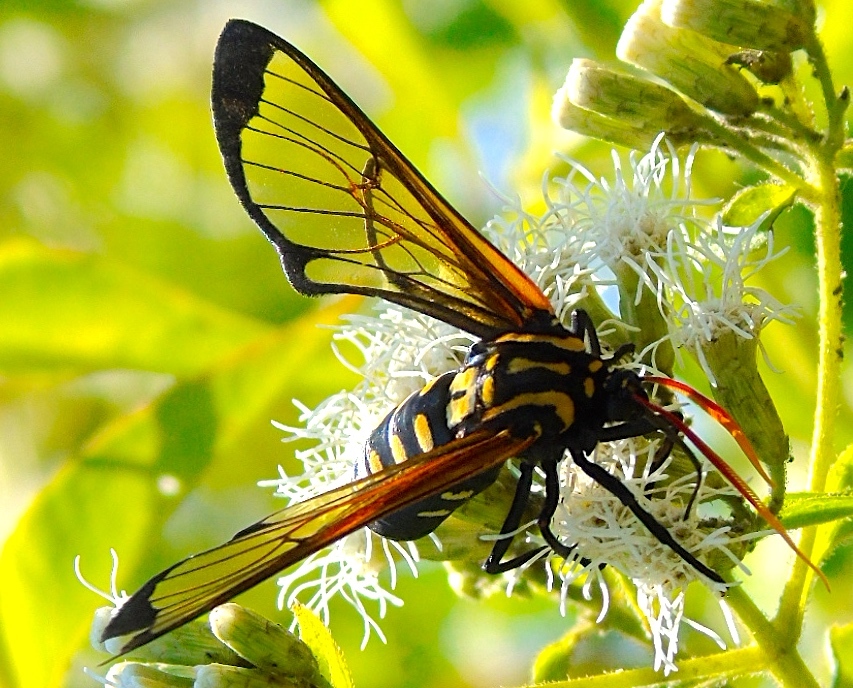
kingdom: Animalia
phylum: Arthropoda
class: Insecta
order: Lepidoptera
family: Erebidae
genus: Isanthrene
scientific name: Isanthrene
